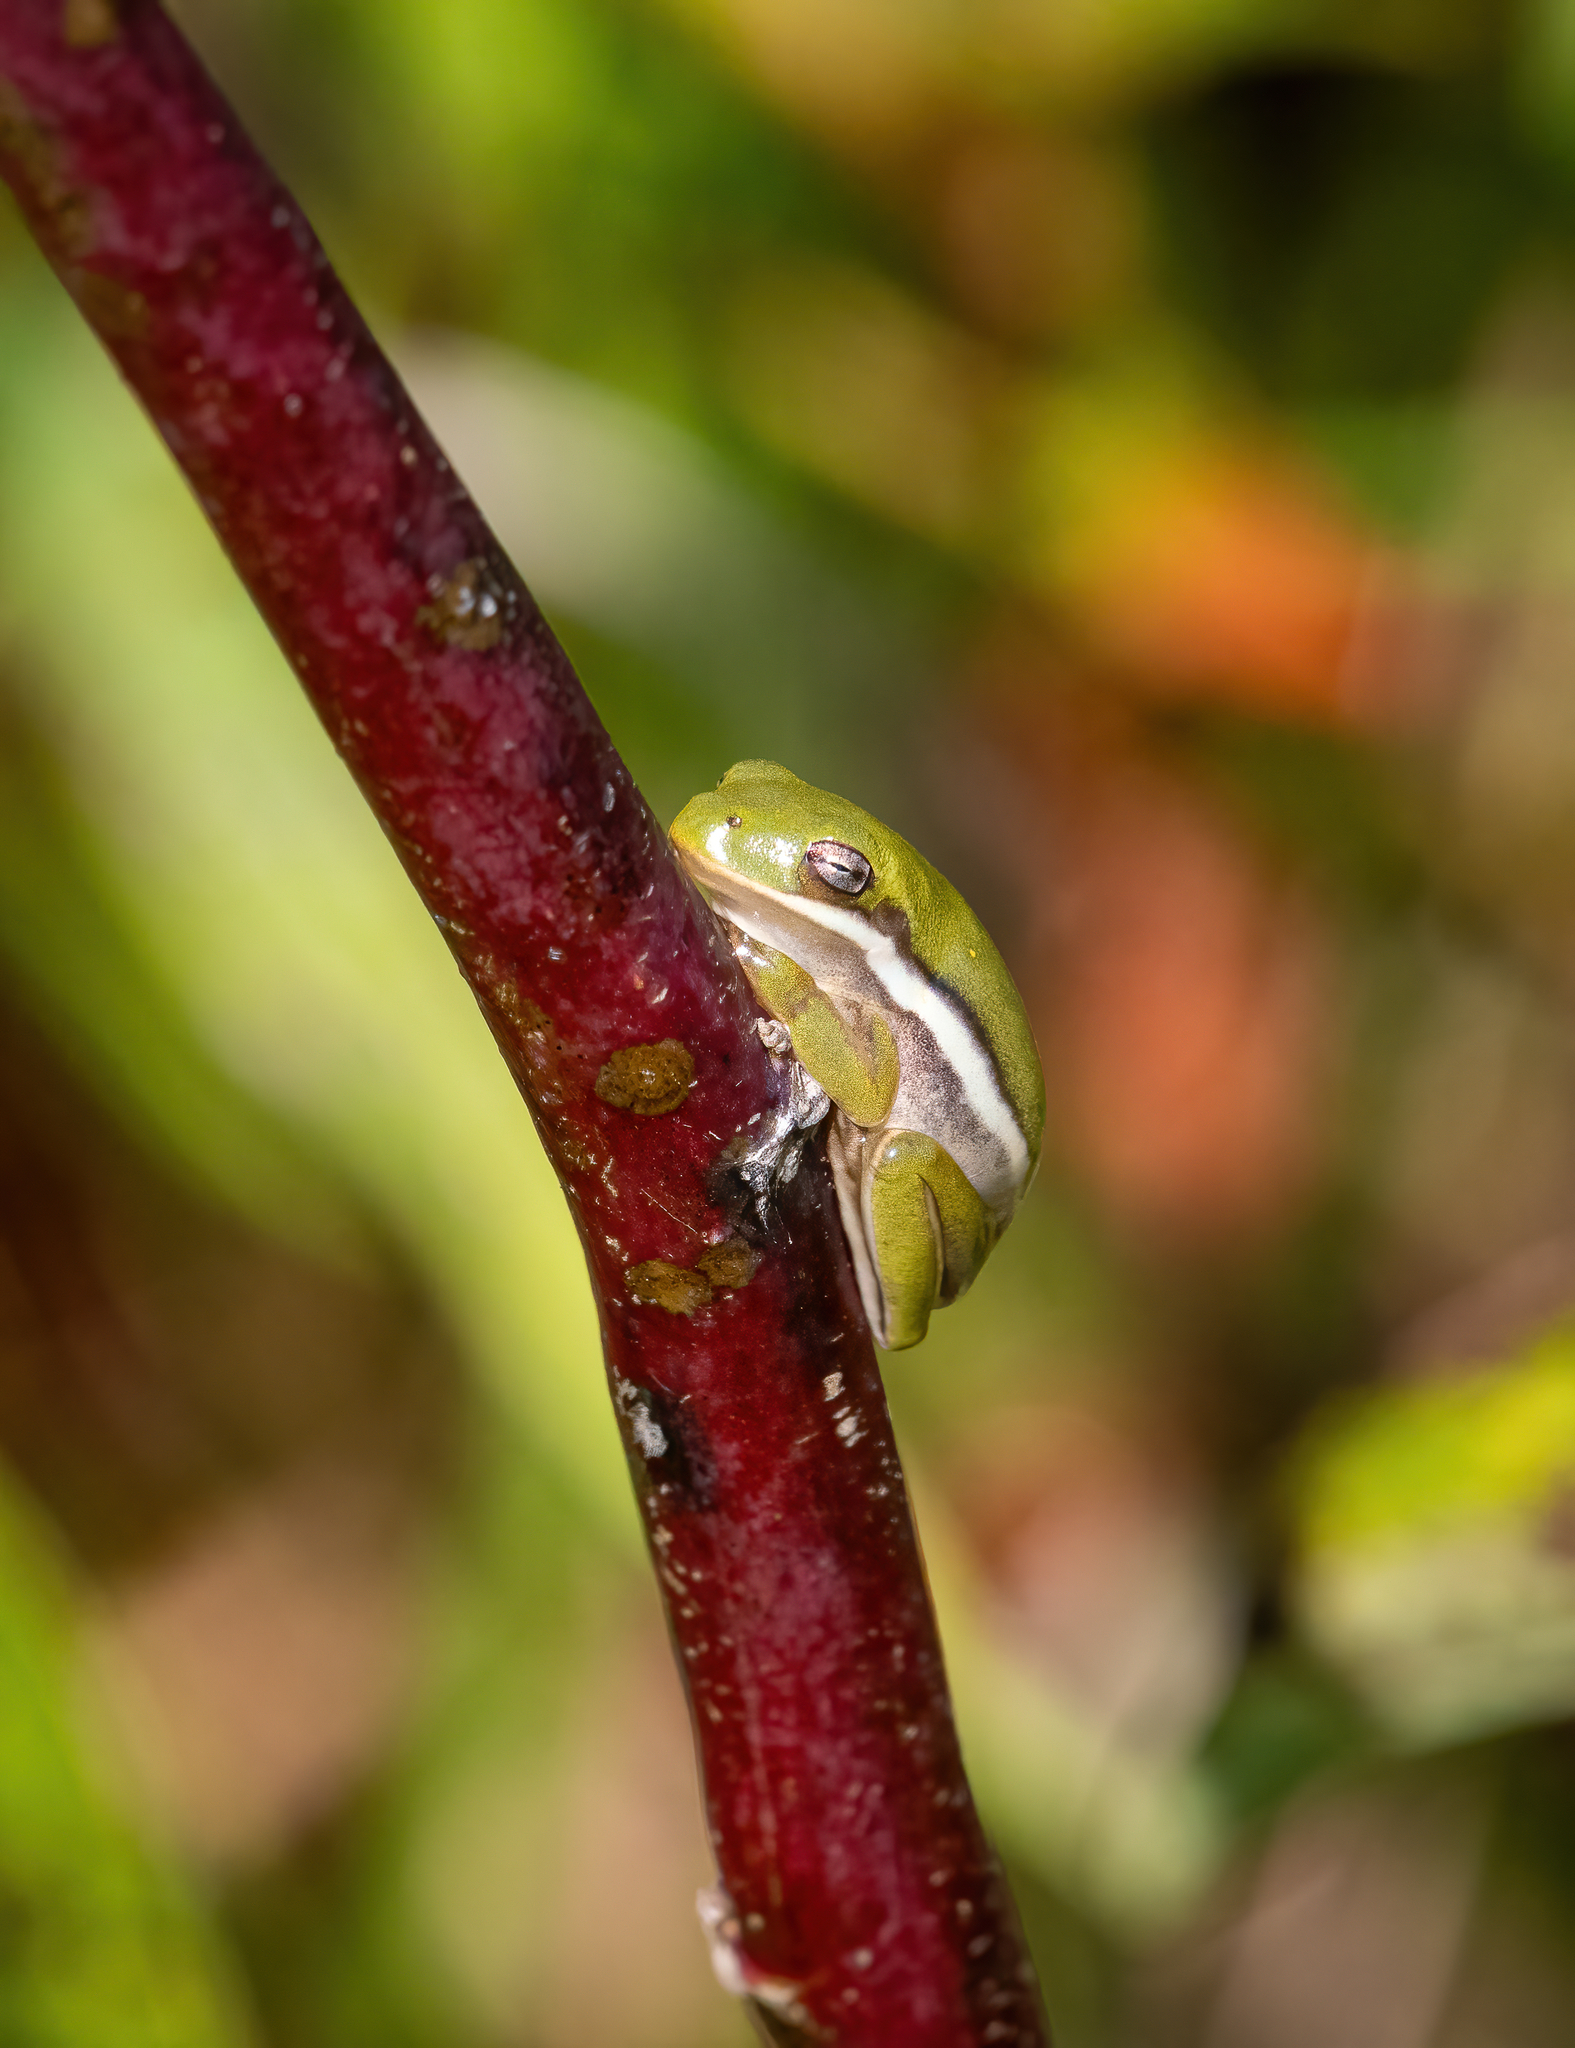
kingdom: Animalia
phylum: Chordata
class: Amphibia
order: Anura
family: Hylidae
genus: Dryophytes
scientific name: Dryophytes cinereus
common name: Green treefrog
